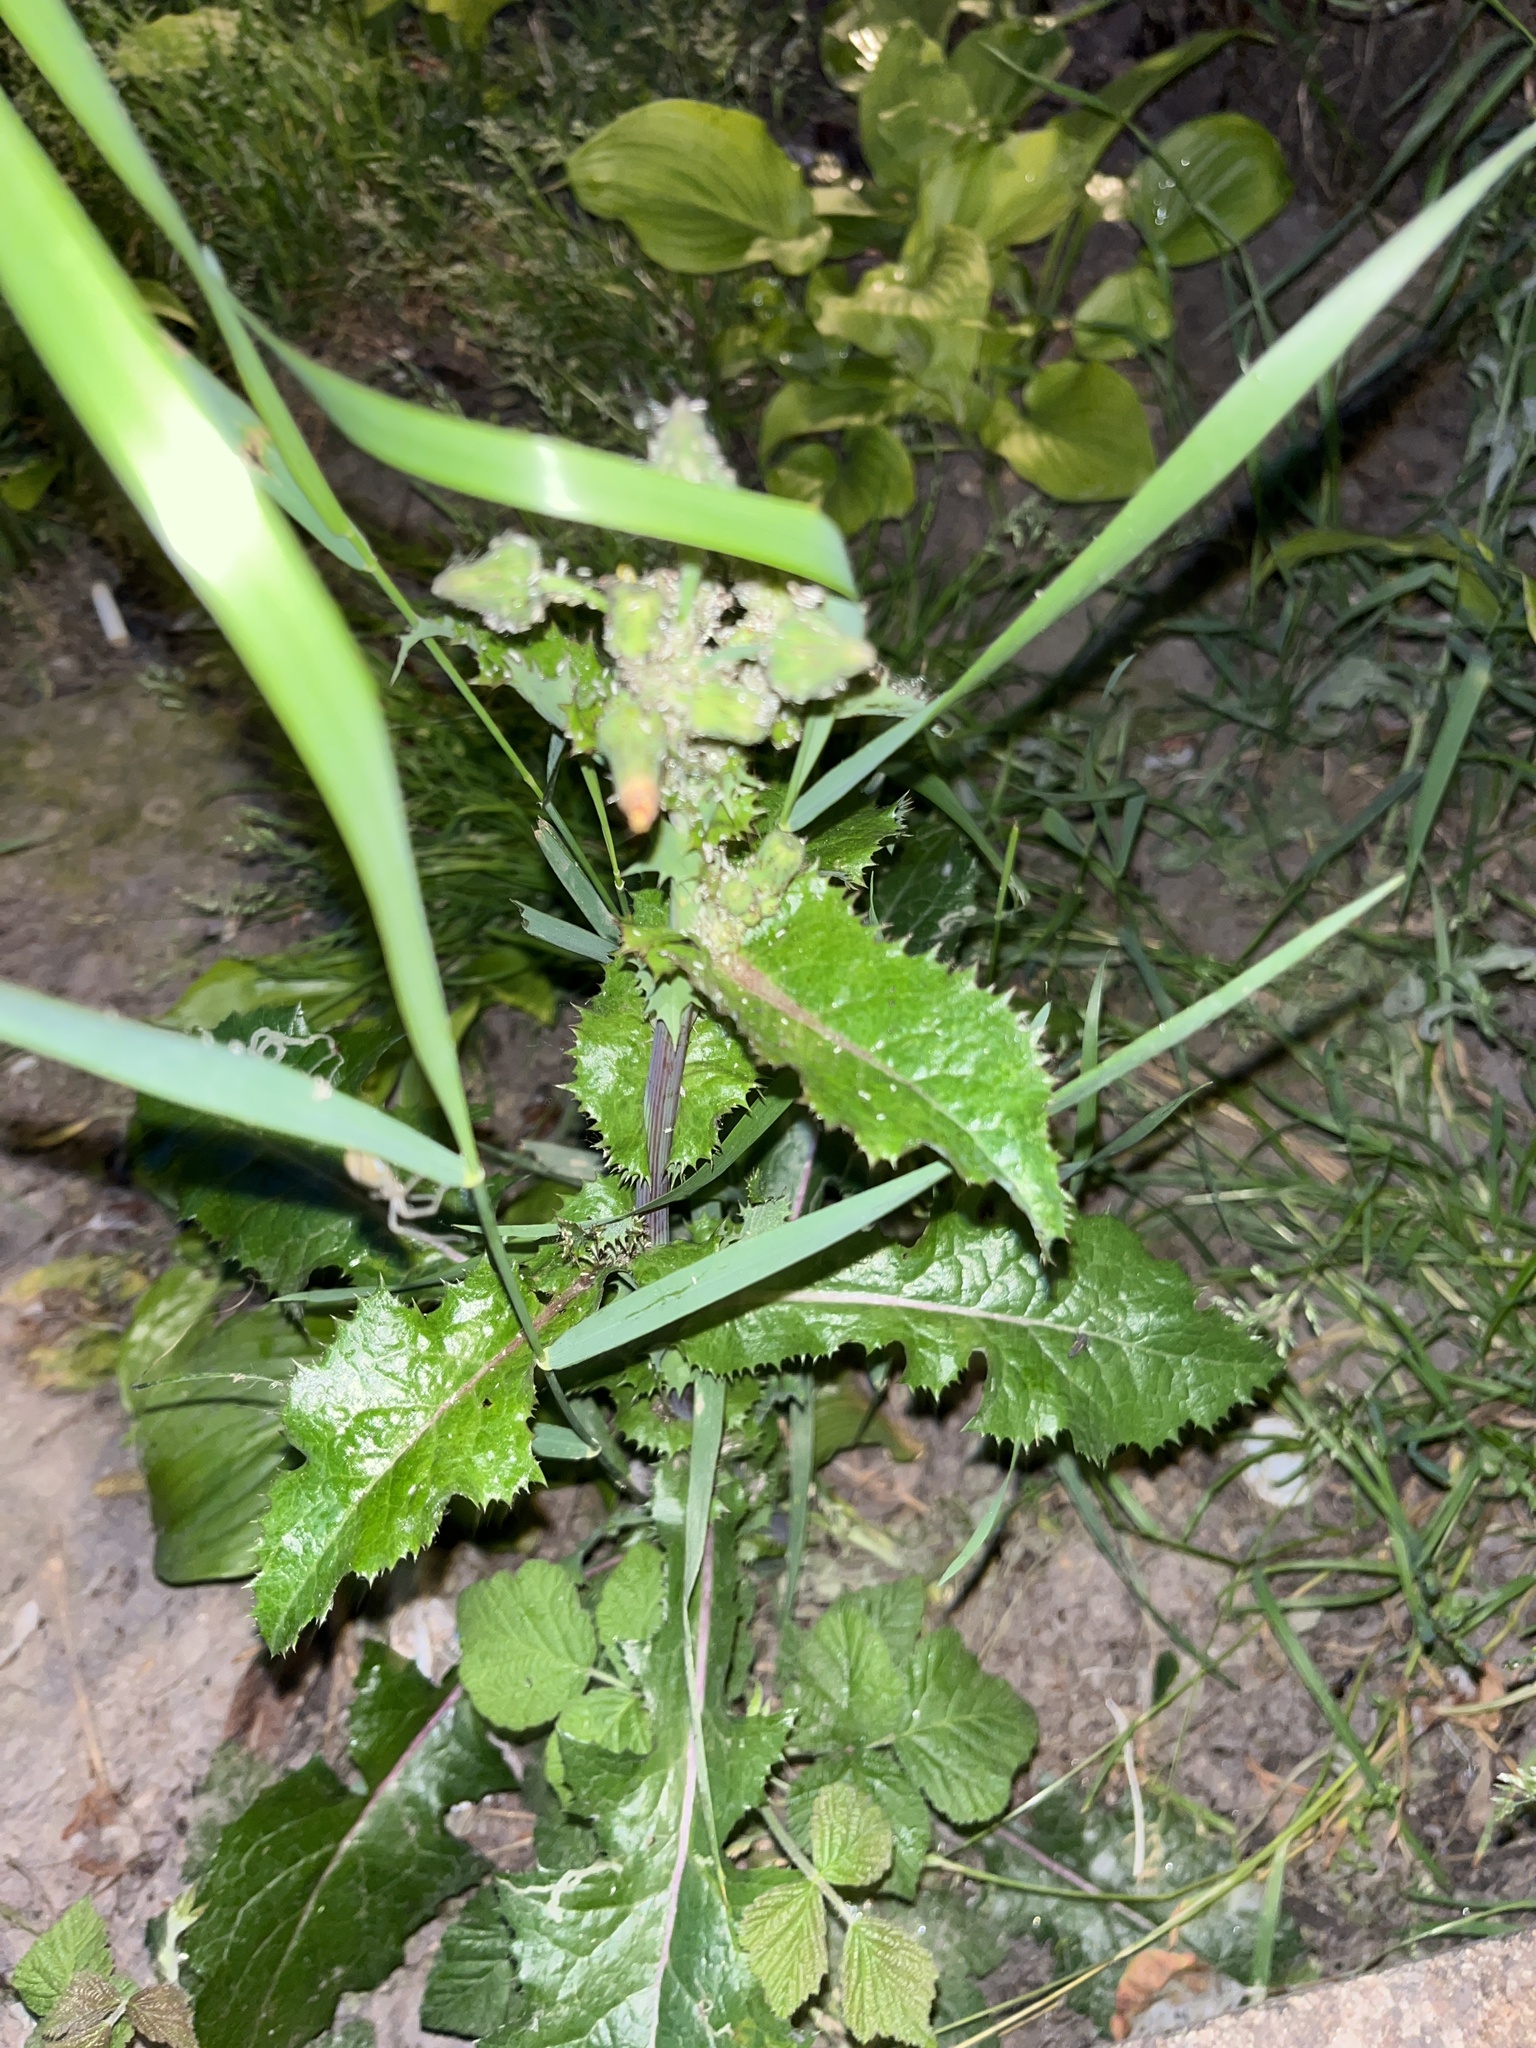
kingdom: Plantae
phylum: Tracheophyta
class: Magnoliopsida
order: Asterales
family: Asteraceae
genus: Sonchus
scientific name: Sonchus asper
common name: Prickly sow-thistle
